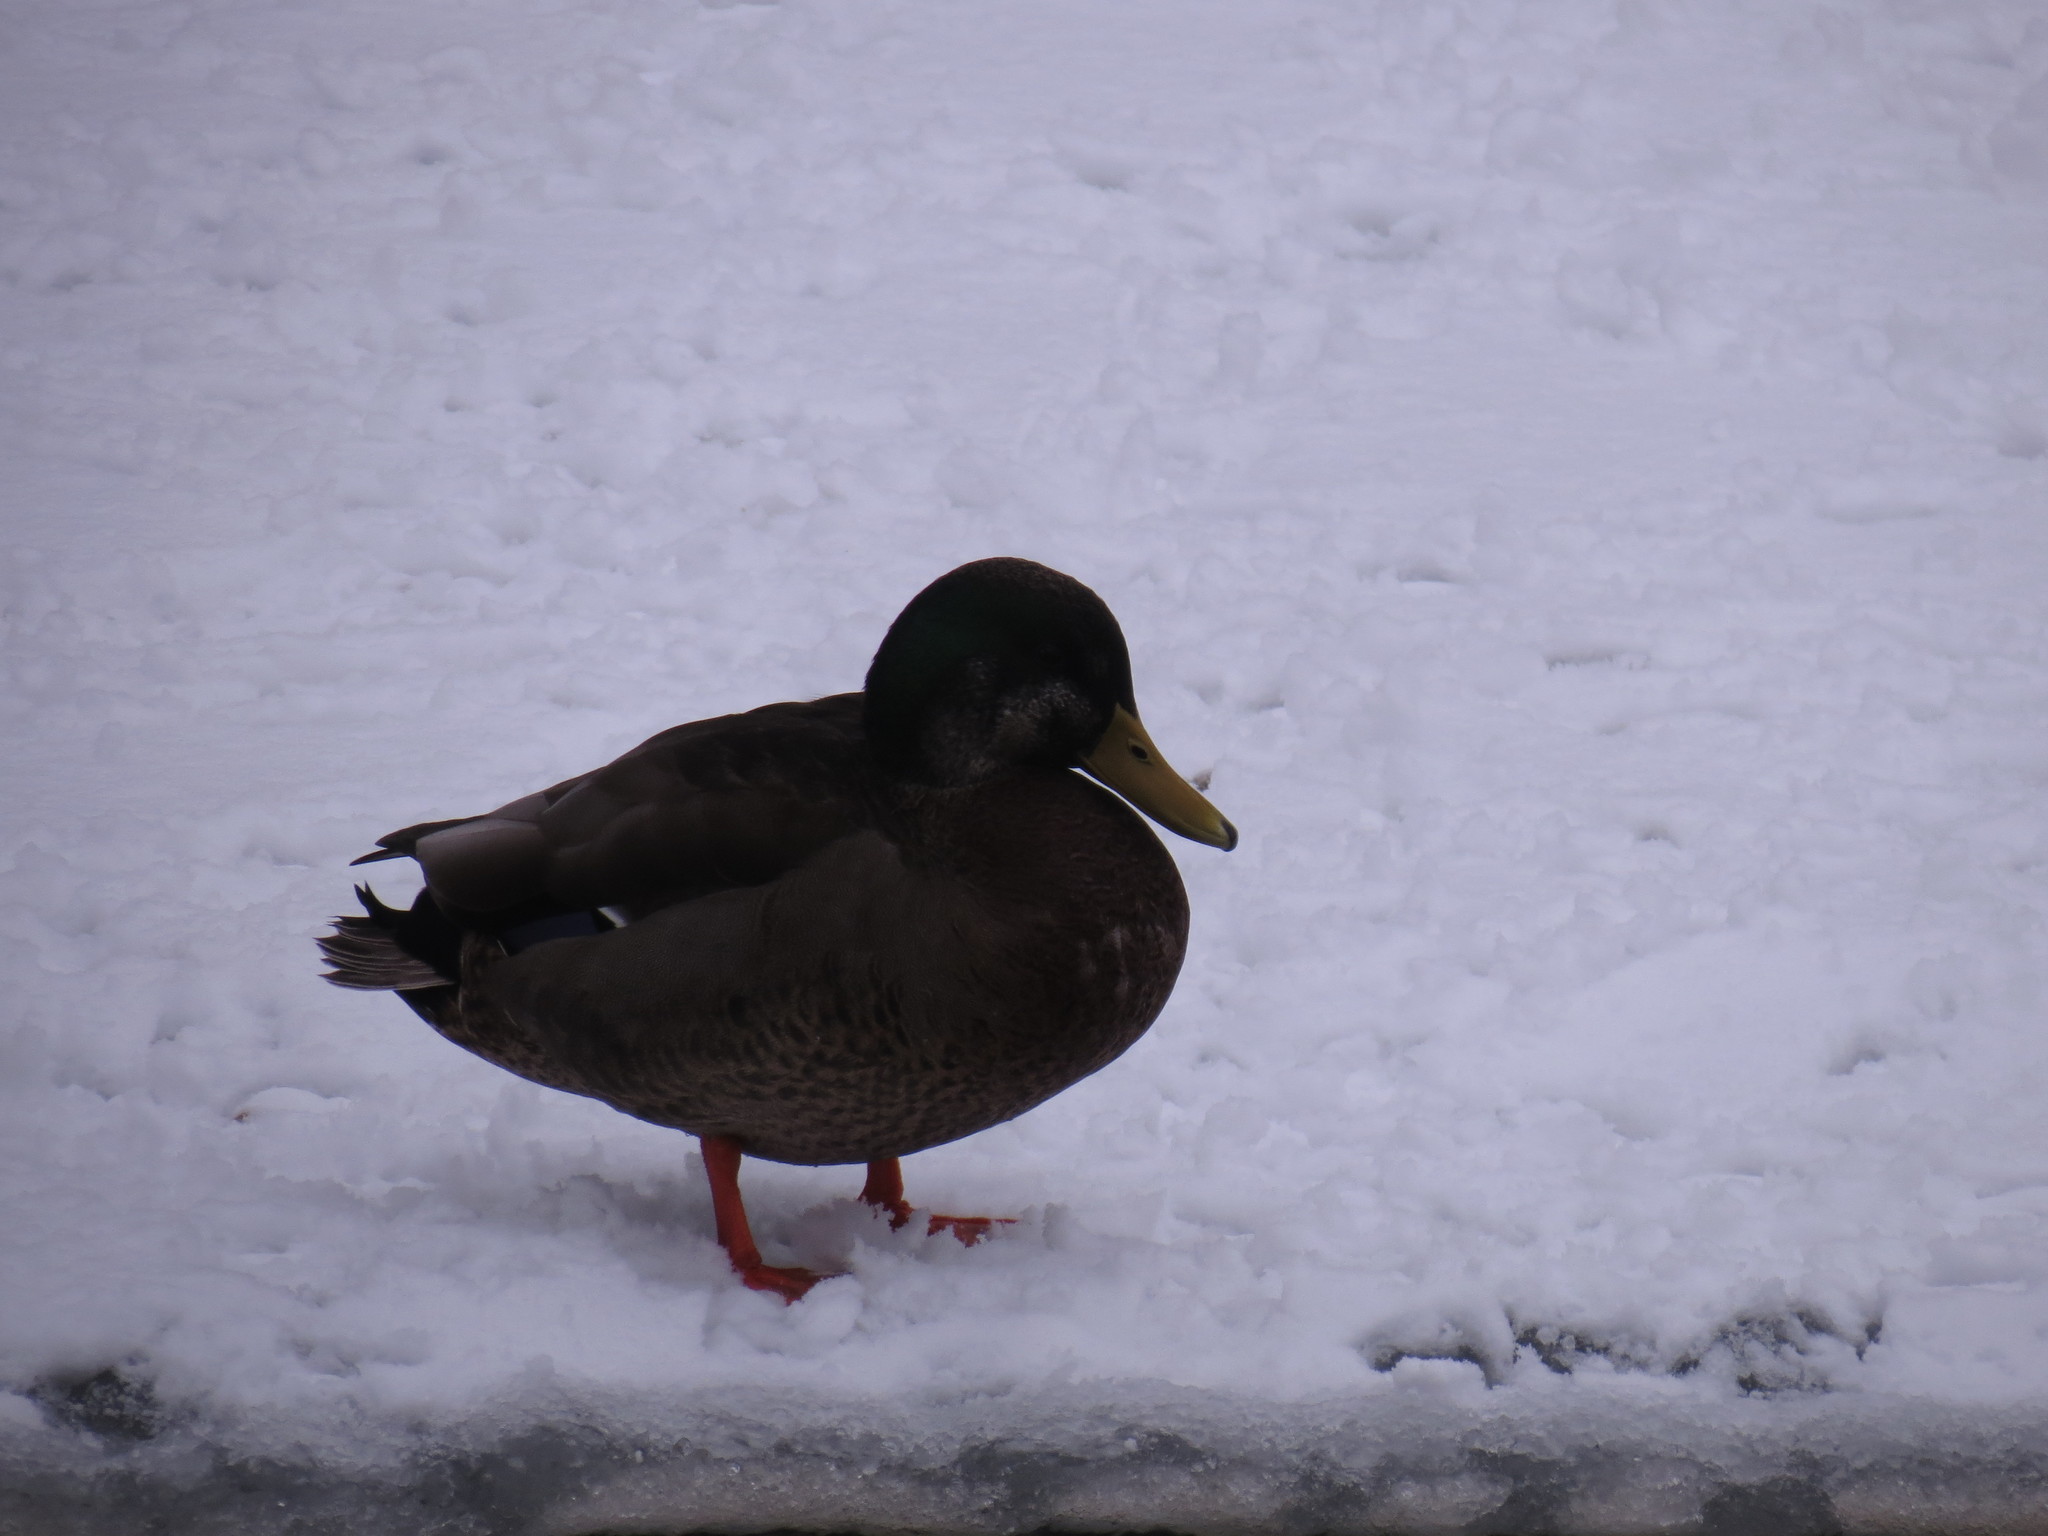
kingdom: Animalia
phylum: Chordata
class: Aves
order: Anseriformes
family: Anatidae
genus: Anas
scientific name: Anas
